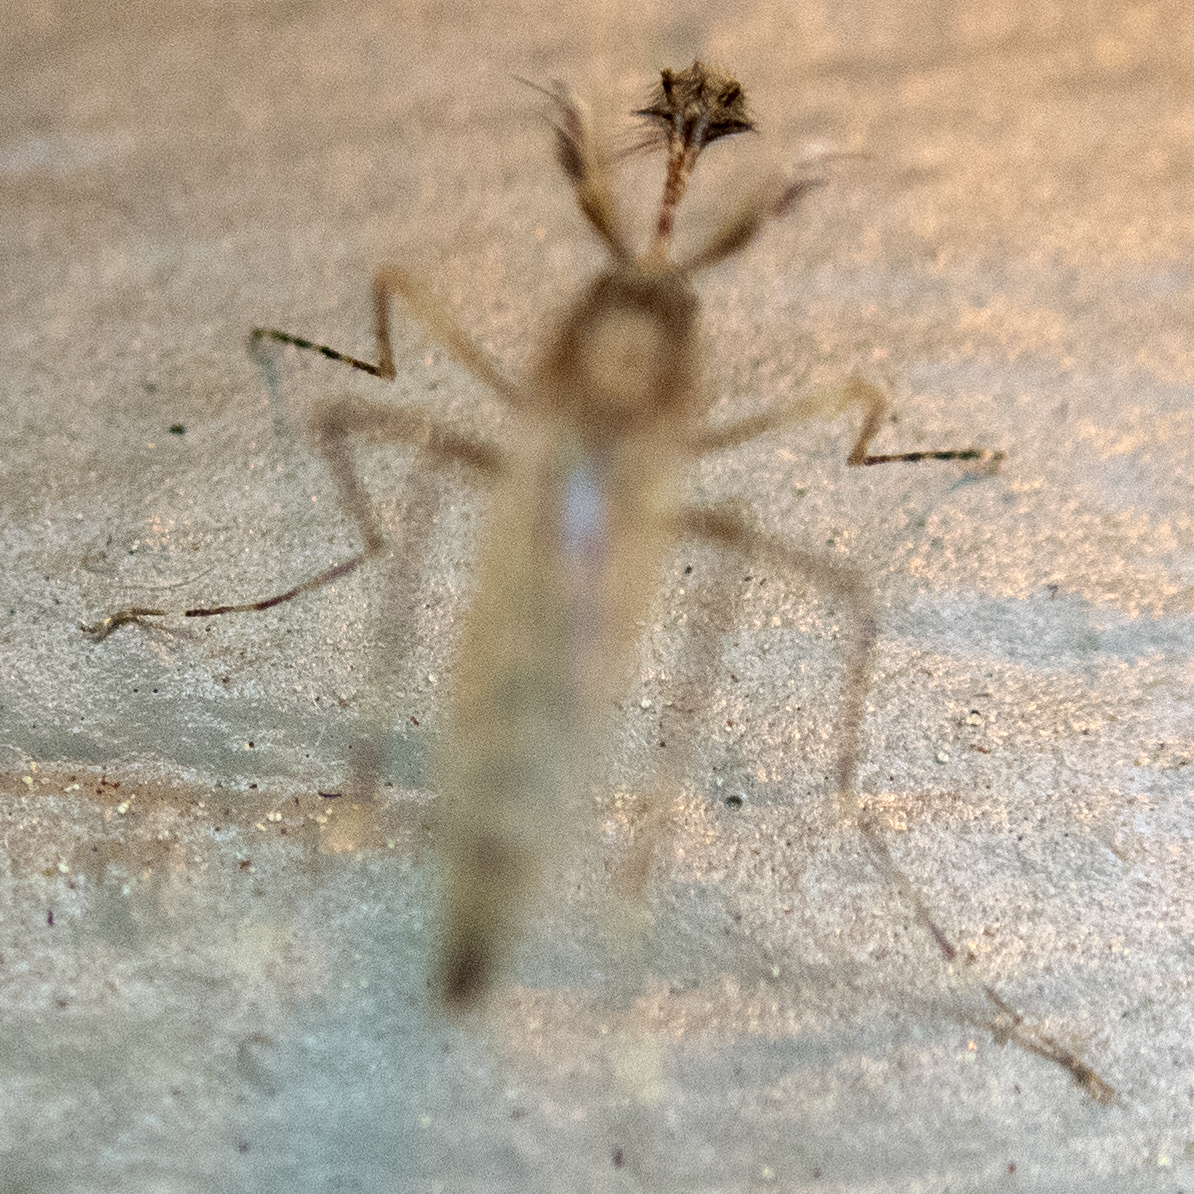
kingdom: Animalia
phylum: Arthropoda
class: Insecta
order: Diptera
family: Culicidae
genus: Coquillettidia
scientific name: Coquillettidia perturbans
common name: Cattail mosquito
